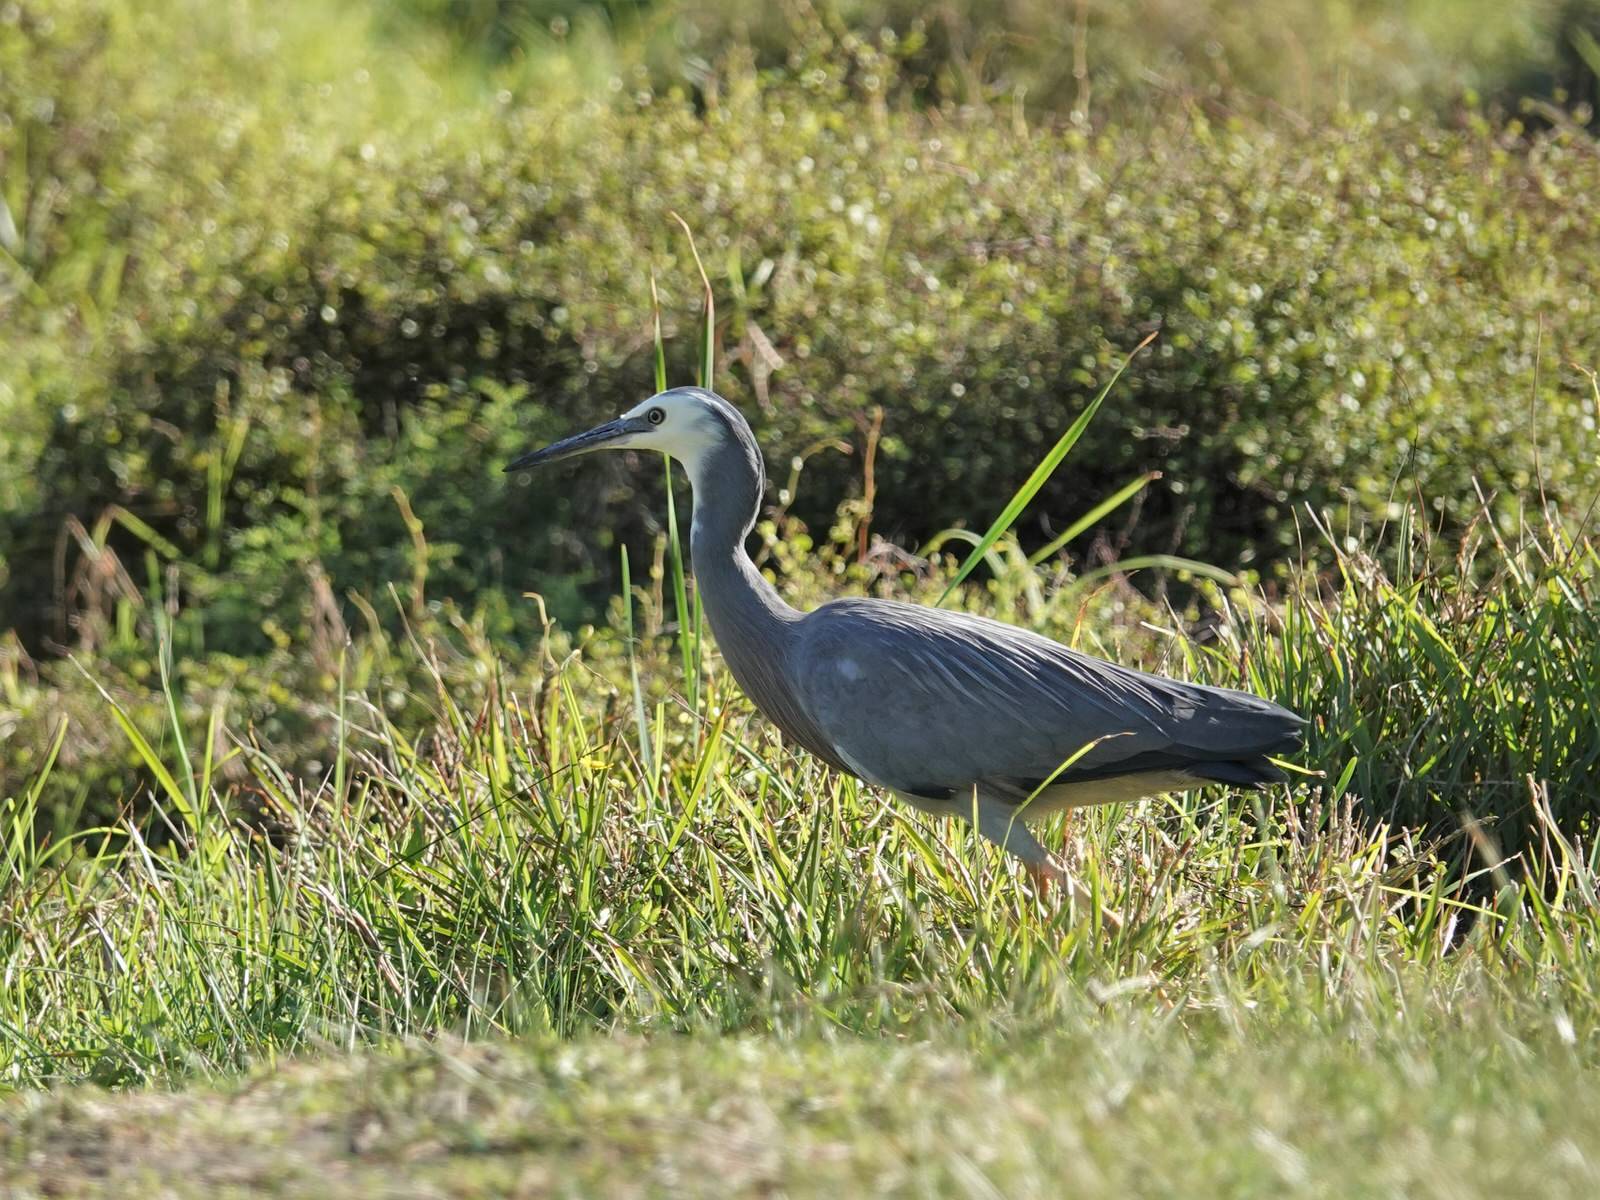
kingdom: Animalia
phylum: Chordata
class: Aves
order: Pelecaniformes
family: Ardeidae
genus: Egretta
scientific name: Egretta novaehollandiae
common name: White-faced heron
